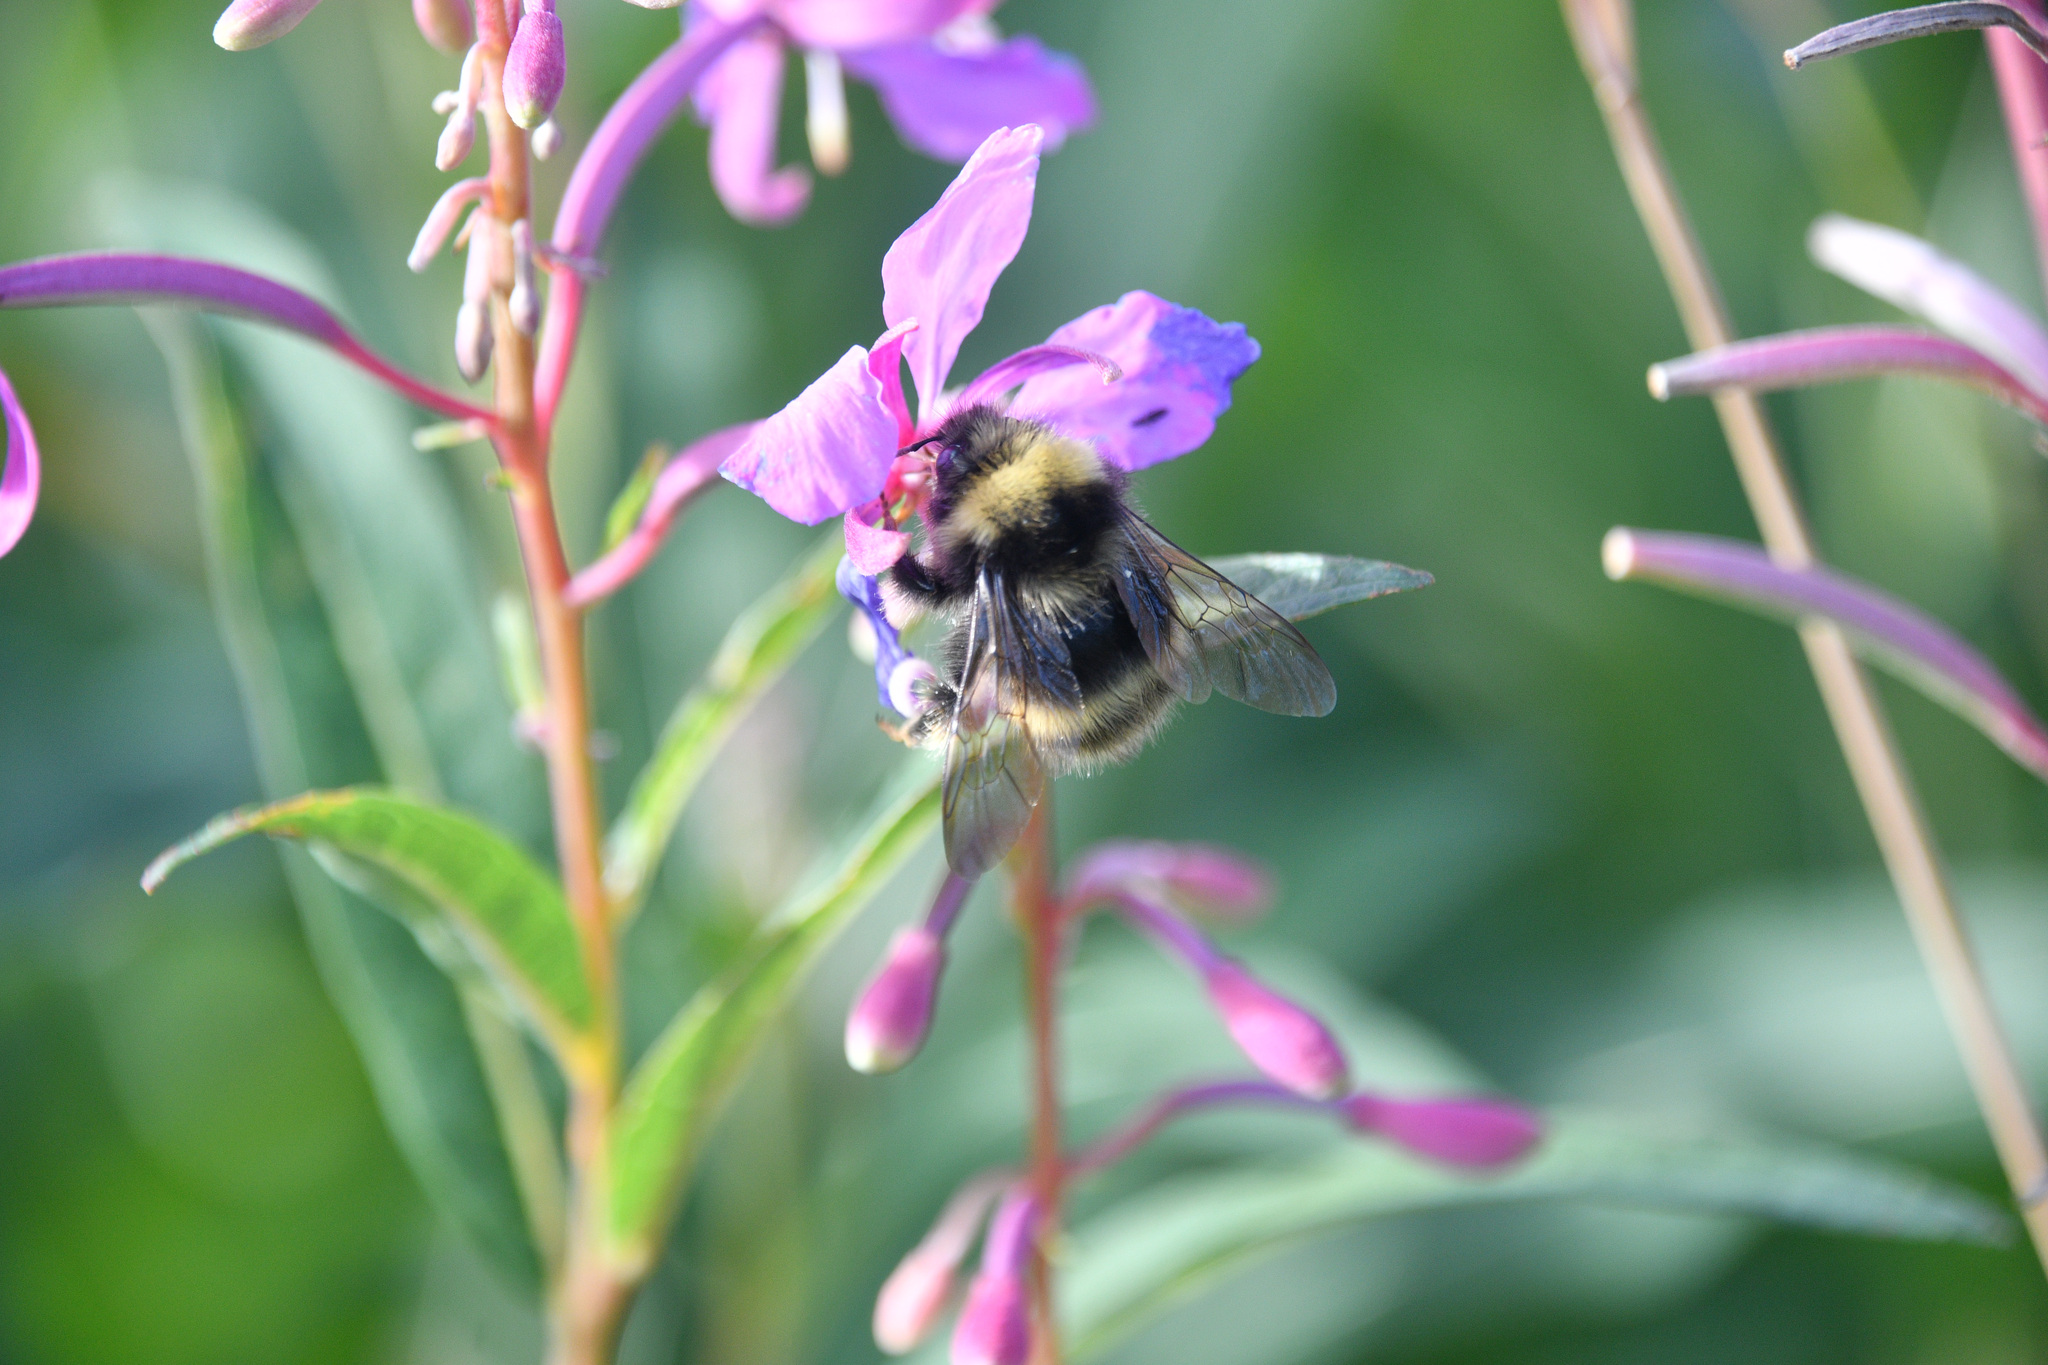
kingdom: Animalia
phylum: Arthropoda
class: Insecta
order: Hymenoptera
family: Apidae
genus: Bombus
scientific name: Bombus mckayi
